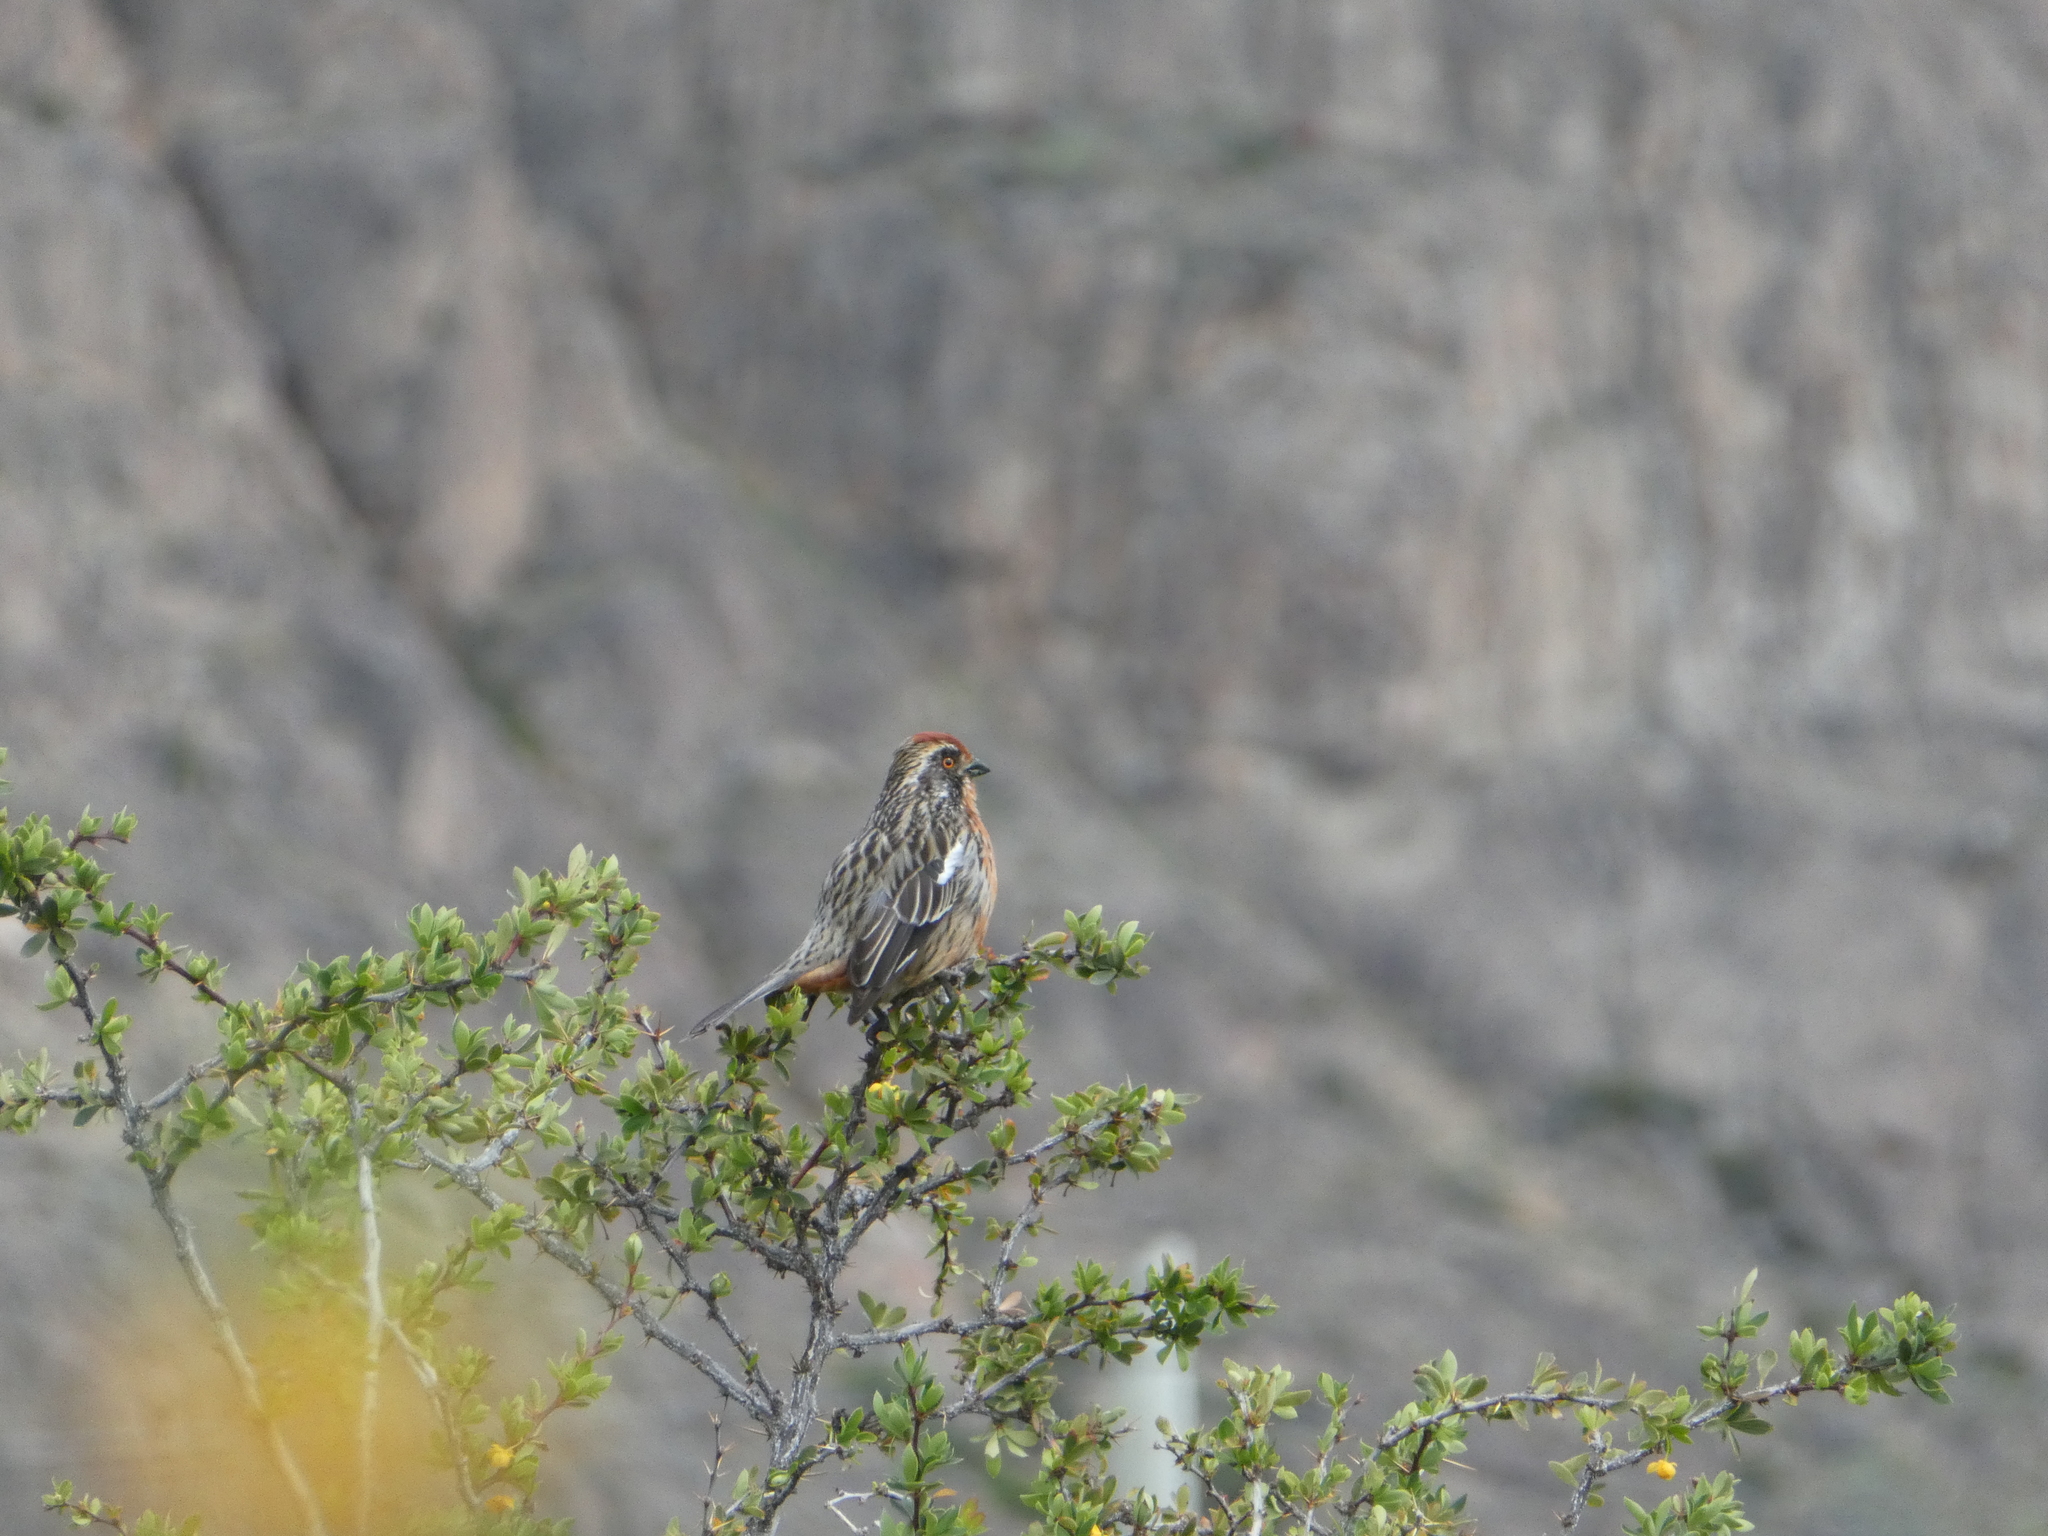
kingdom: Animalia
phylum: Chordata
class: Aves
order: Passeriformes
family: Cotingidae
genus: Phytotoma
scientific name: Phytotoma rara
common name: Rufous-tailed plantcutter
